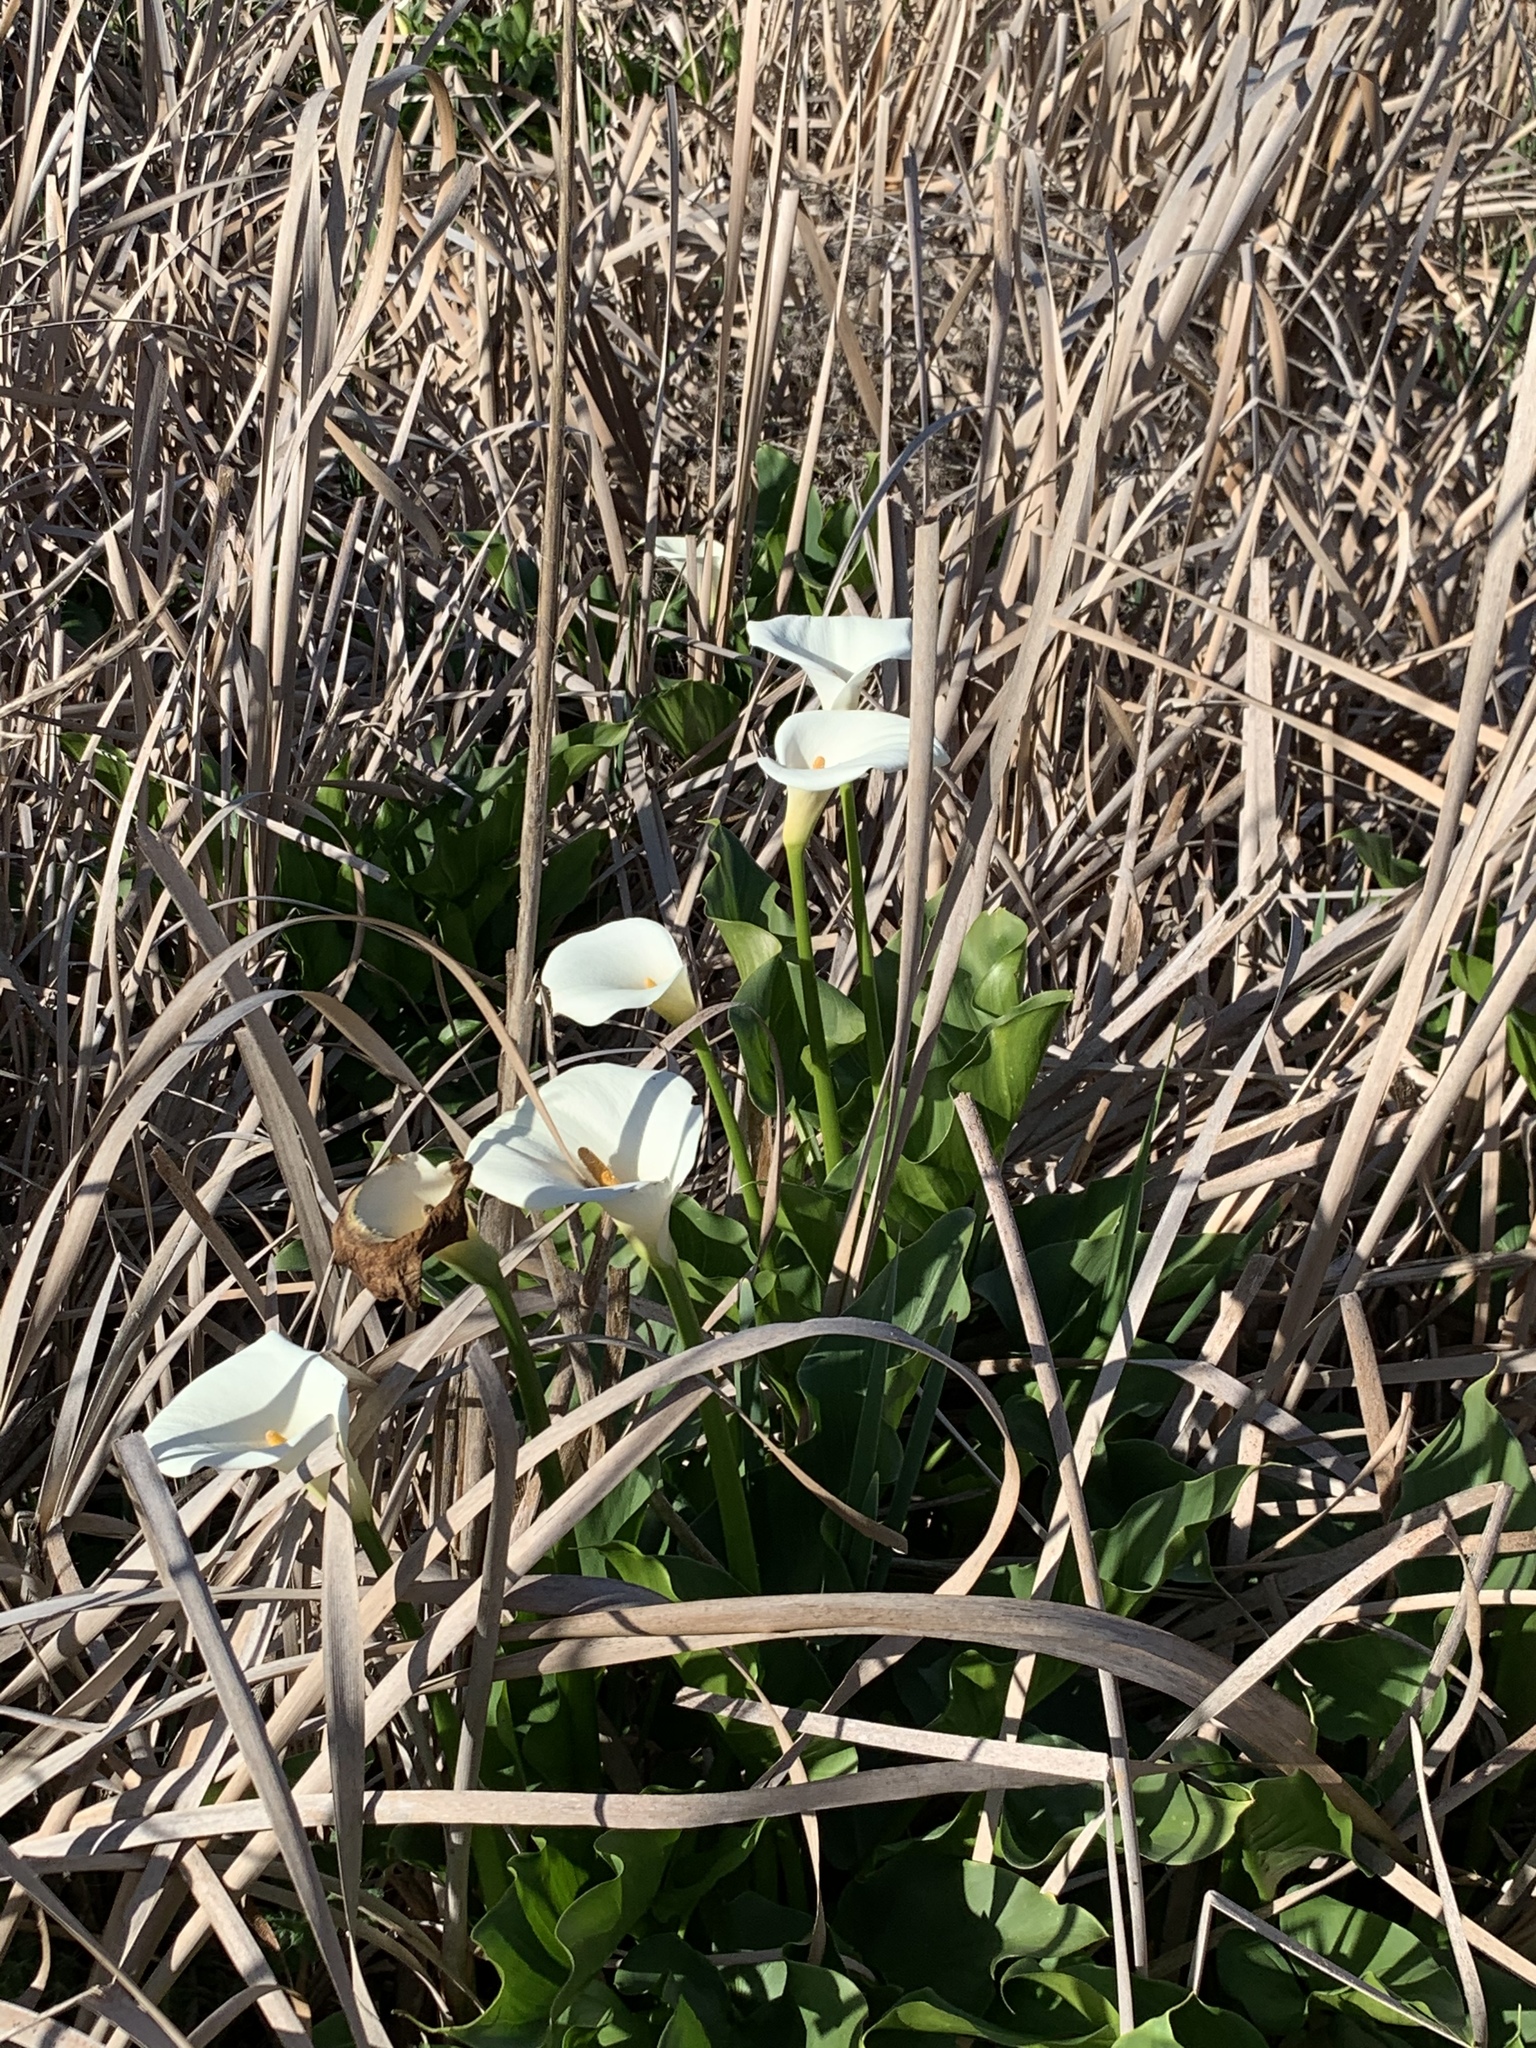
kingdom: Plantae
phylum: Tracheophyta
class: Liliopsida
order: Alismatales
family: Araceae
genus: Zantedeschia
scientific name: Zantedeschia aethiopica
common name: Altar-lily
